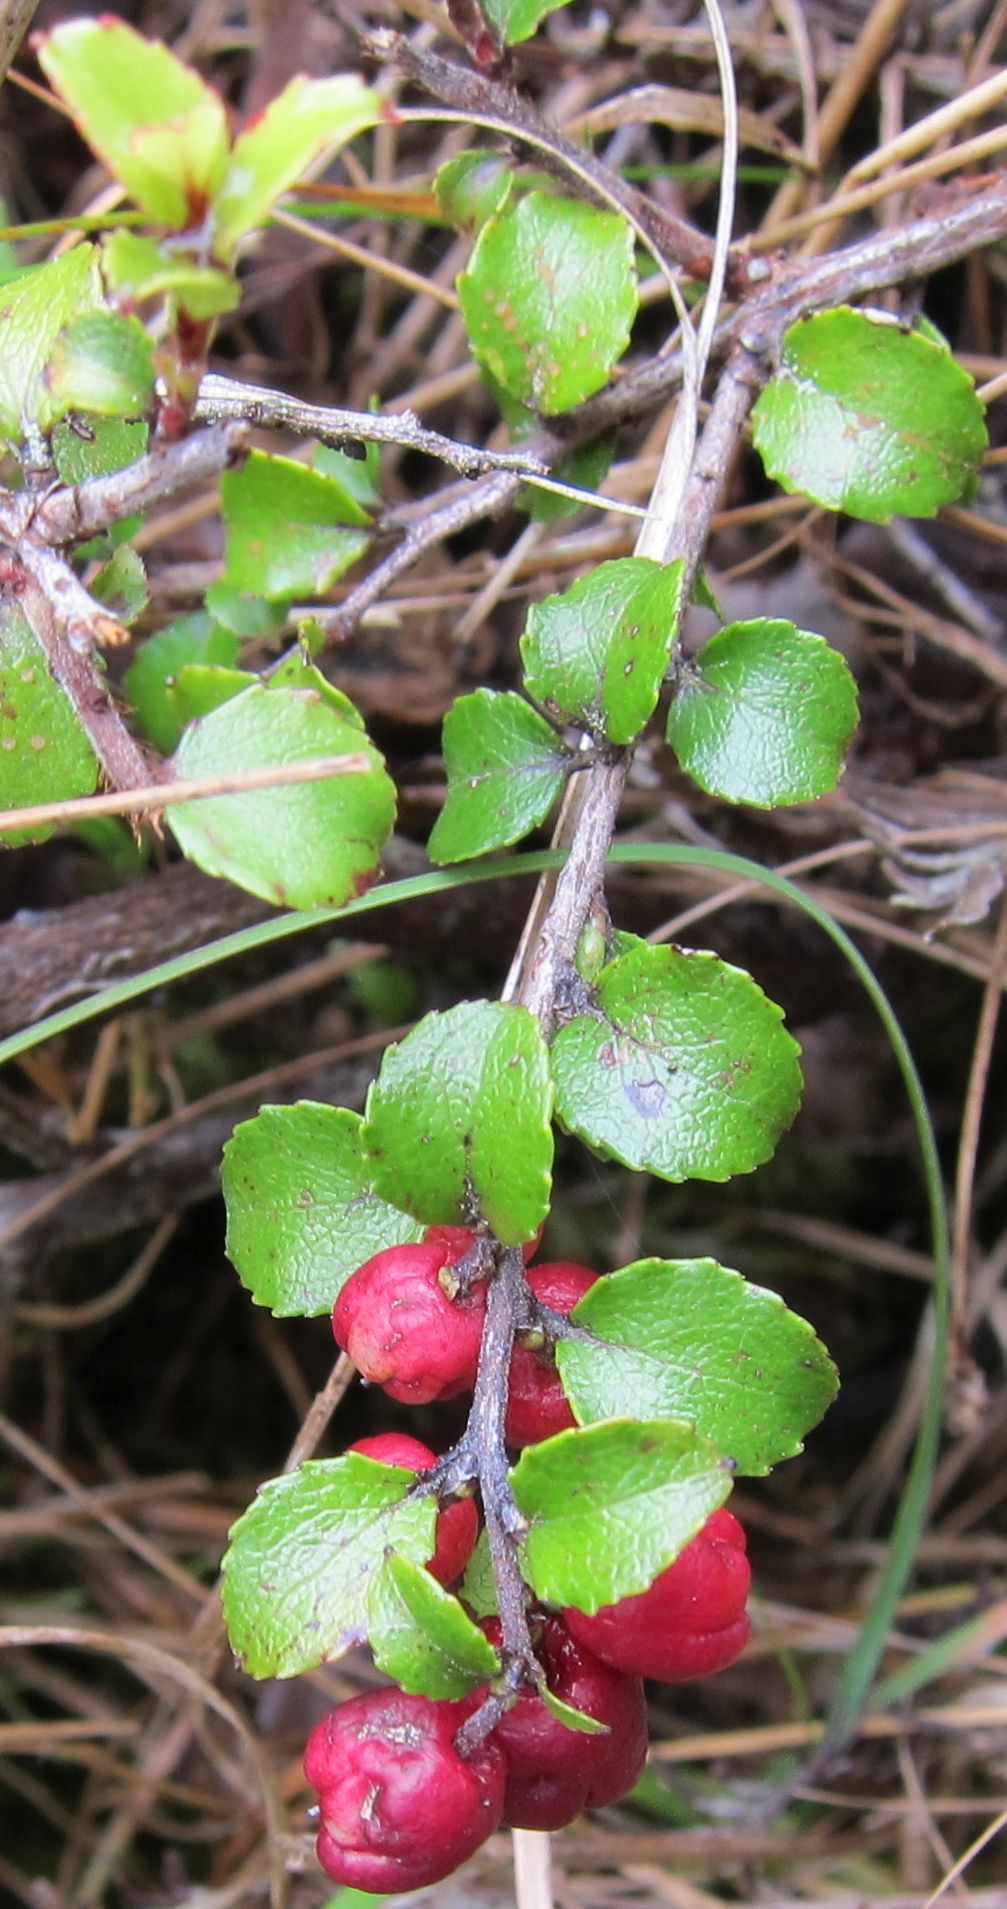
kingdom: Plantae
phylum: Tracheophyta
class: Magnoliopsida
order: Ericales
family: Ericaceae
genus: Gaultheria
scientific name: Gaultheria antipoda
